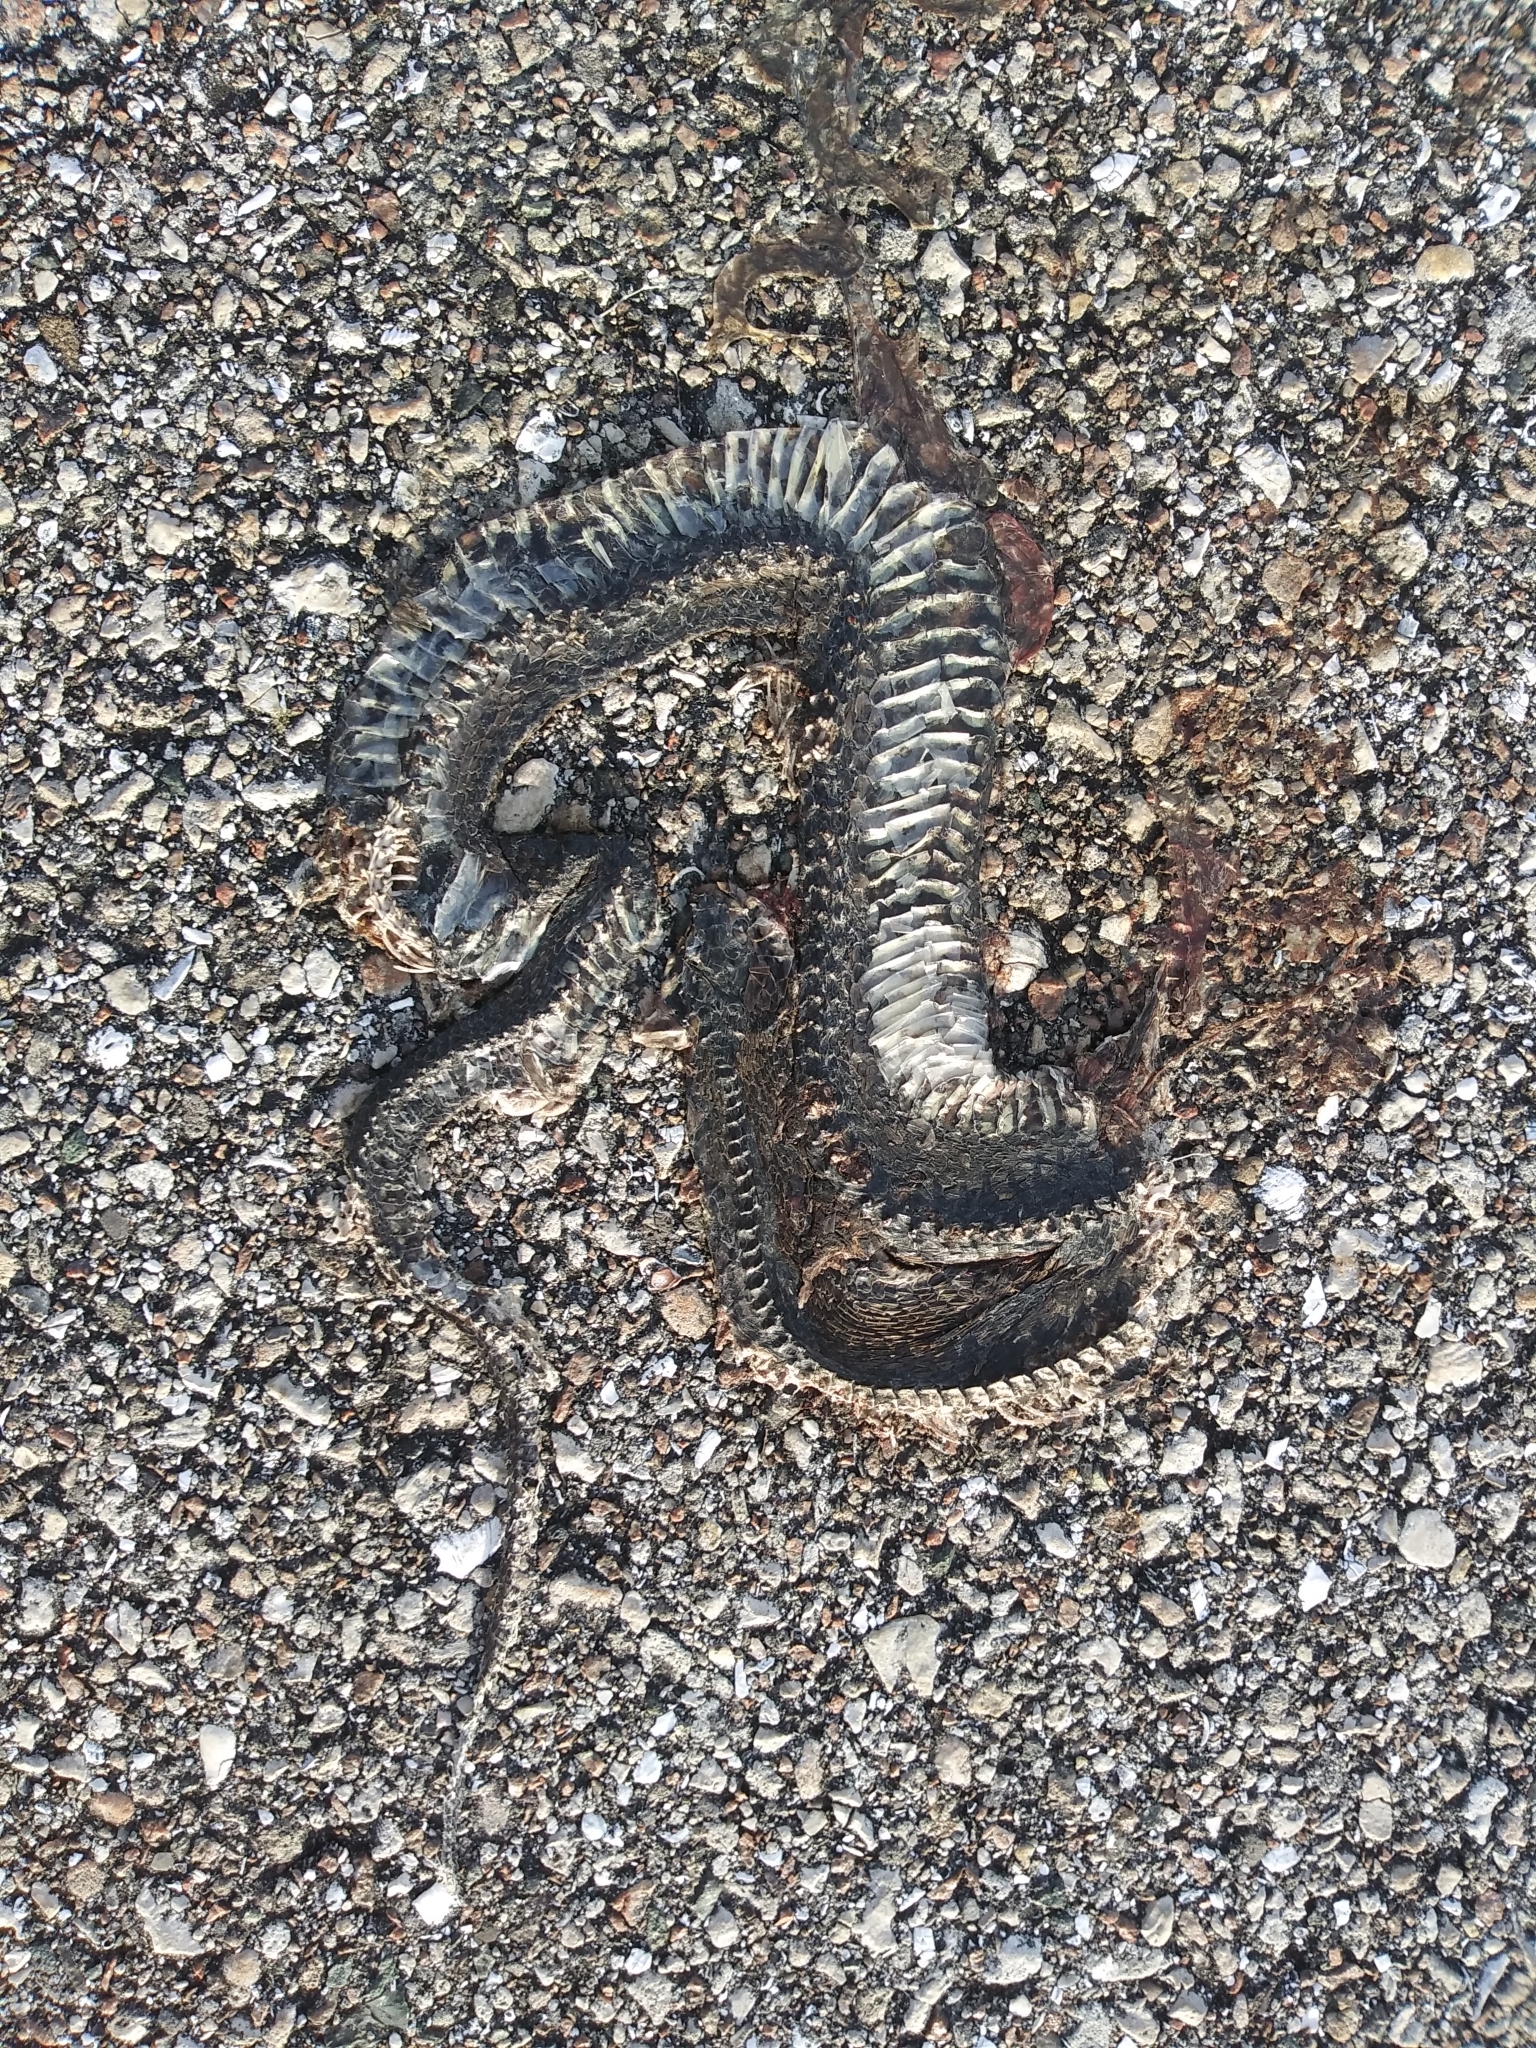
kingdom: Animalia
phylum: Chordata
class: Squamata
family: Colubridae
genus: Nerodia
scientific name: Nerodia fasciata
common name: Southern water snake
